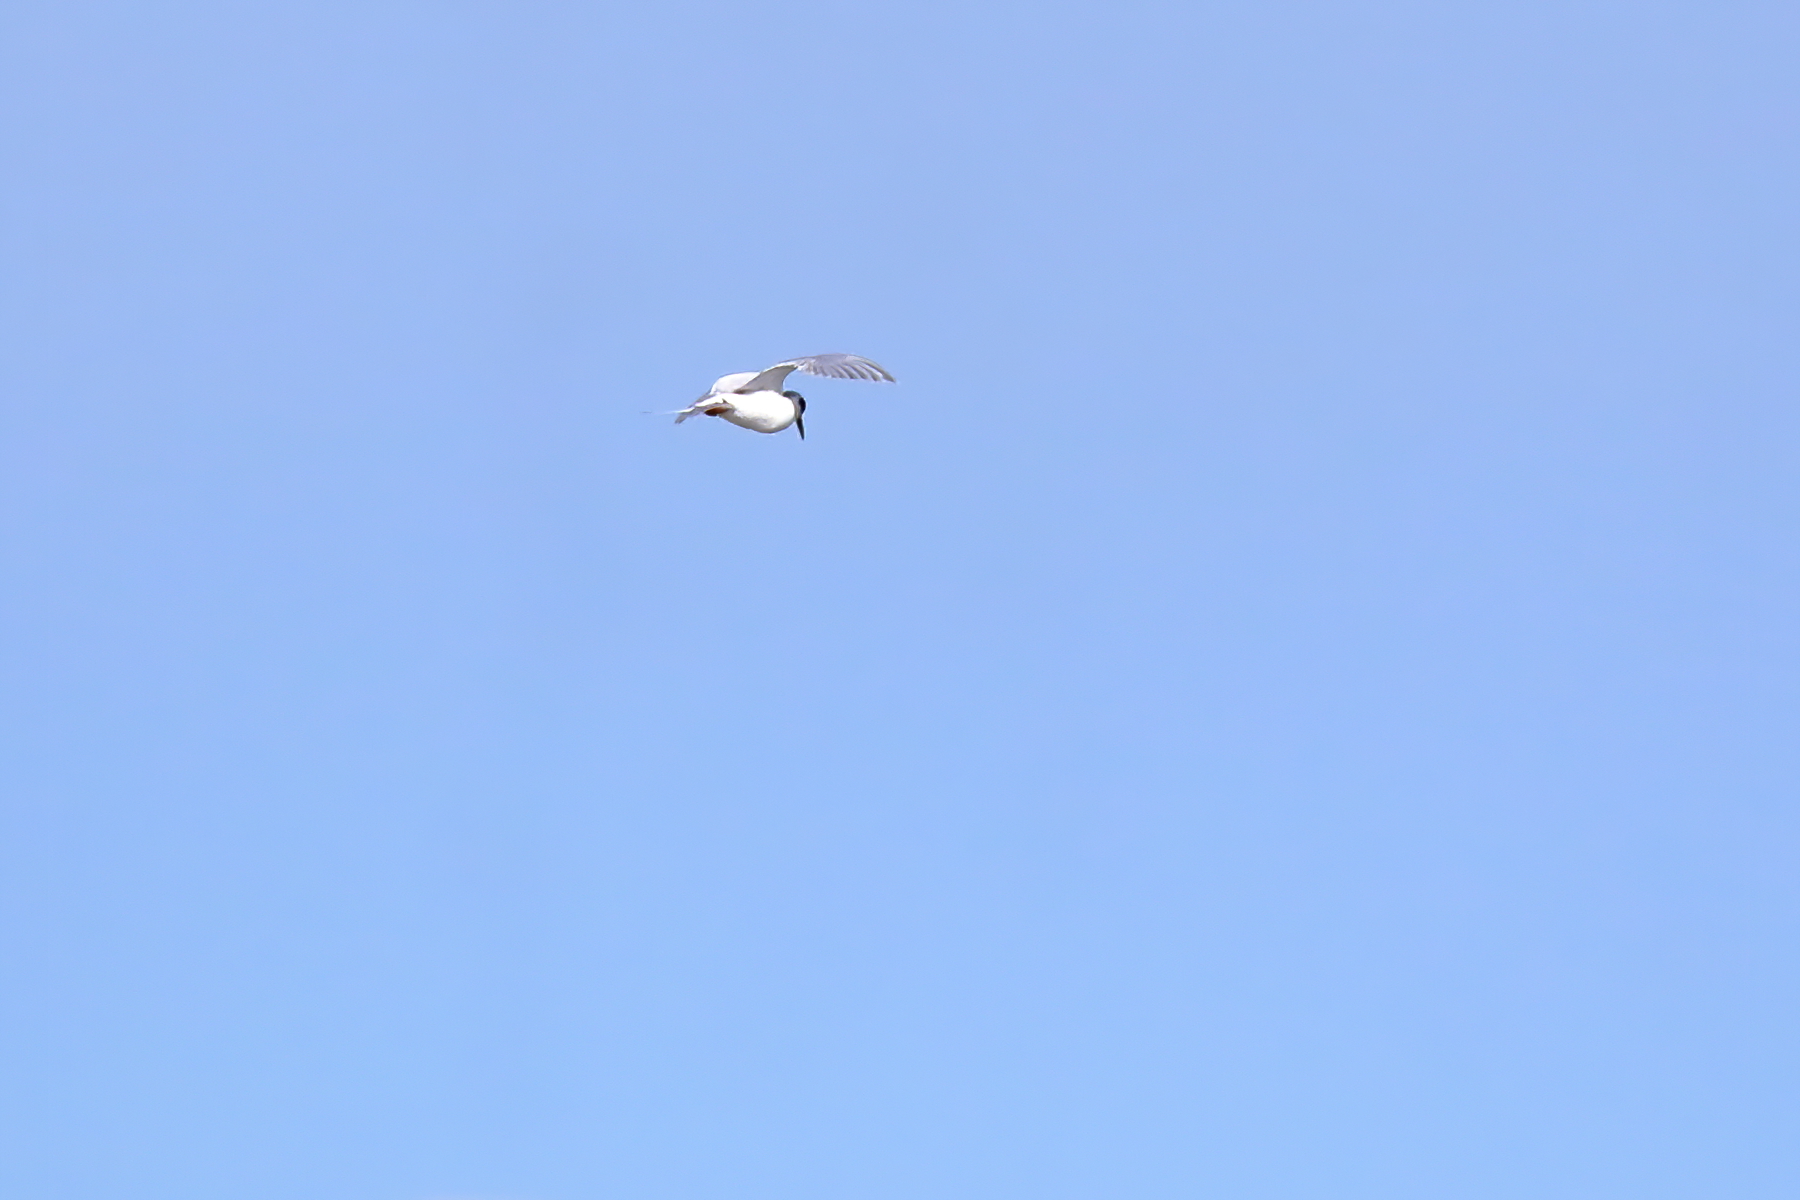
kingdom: Animalia
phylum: Chordata
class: Aves
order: Charadriiformes
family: Laridae
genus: Sterna
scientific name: Sterna forsteri
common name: Forster's tern
